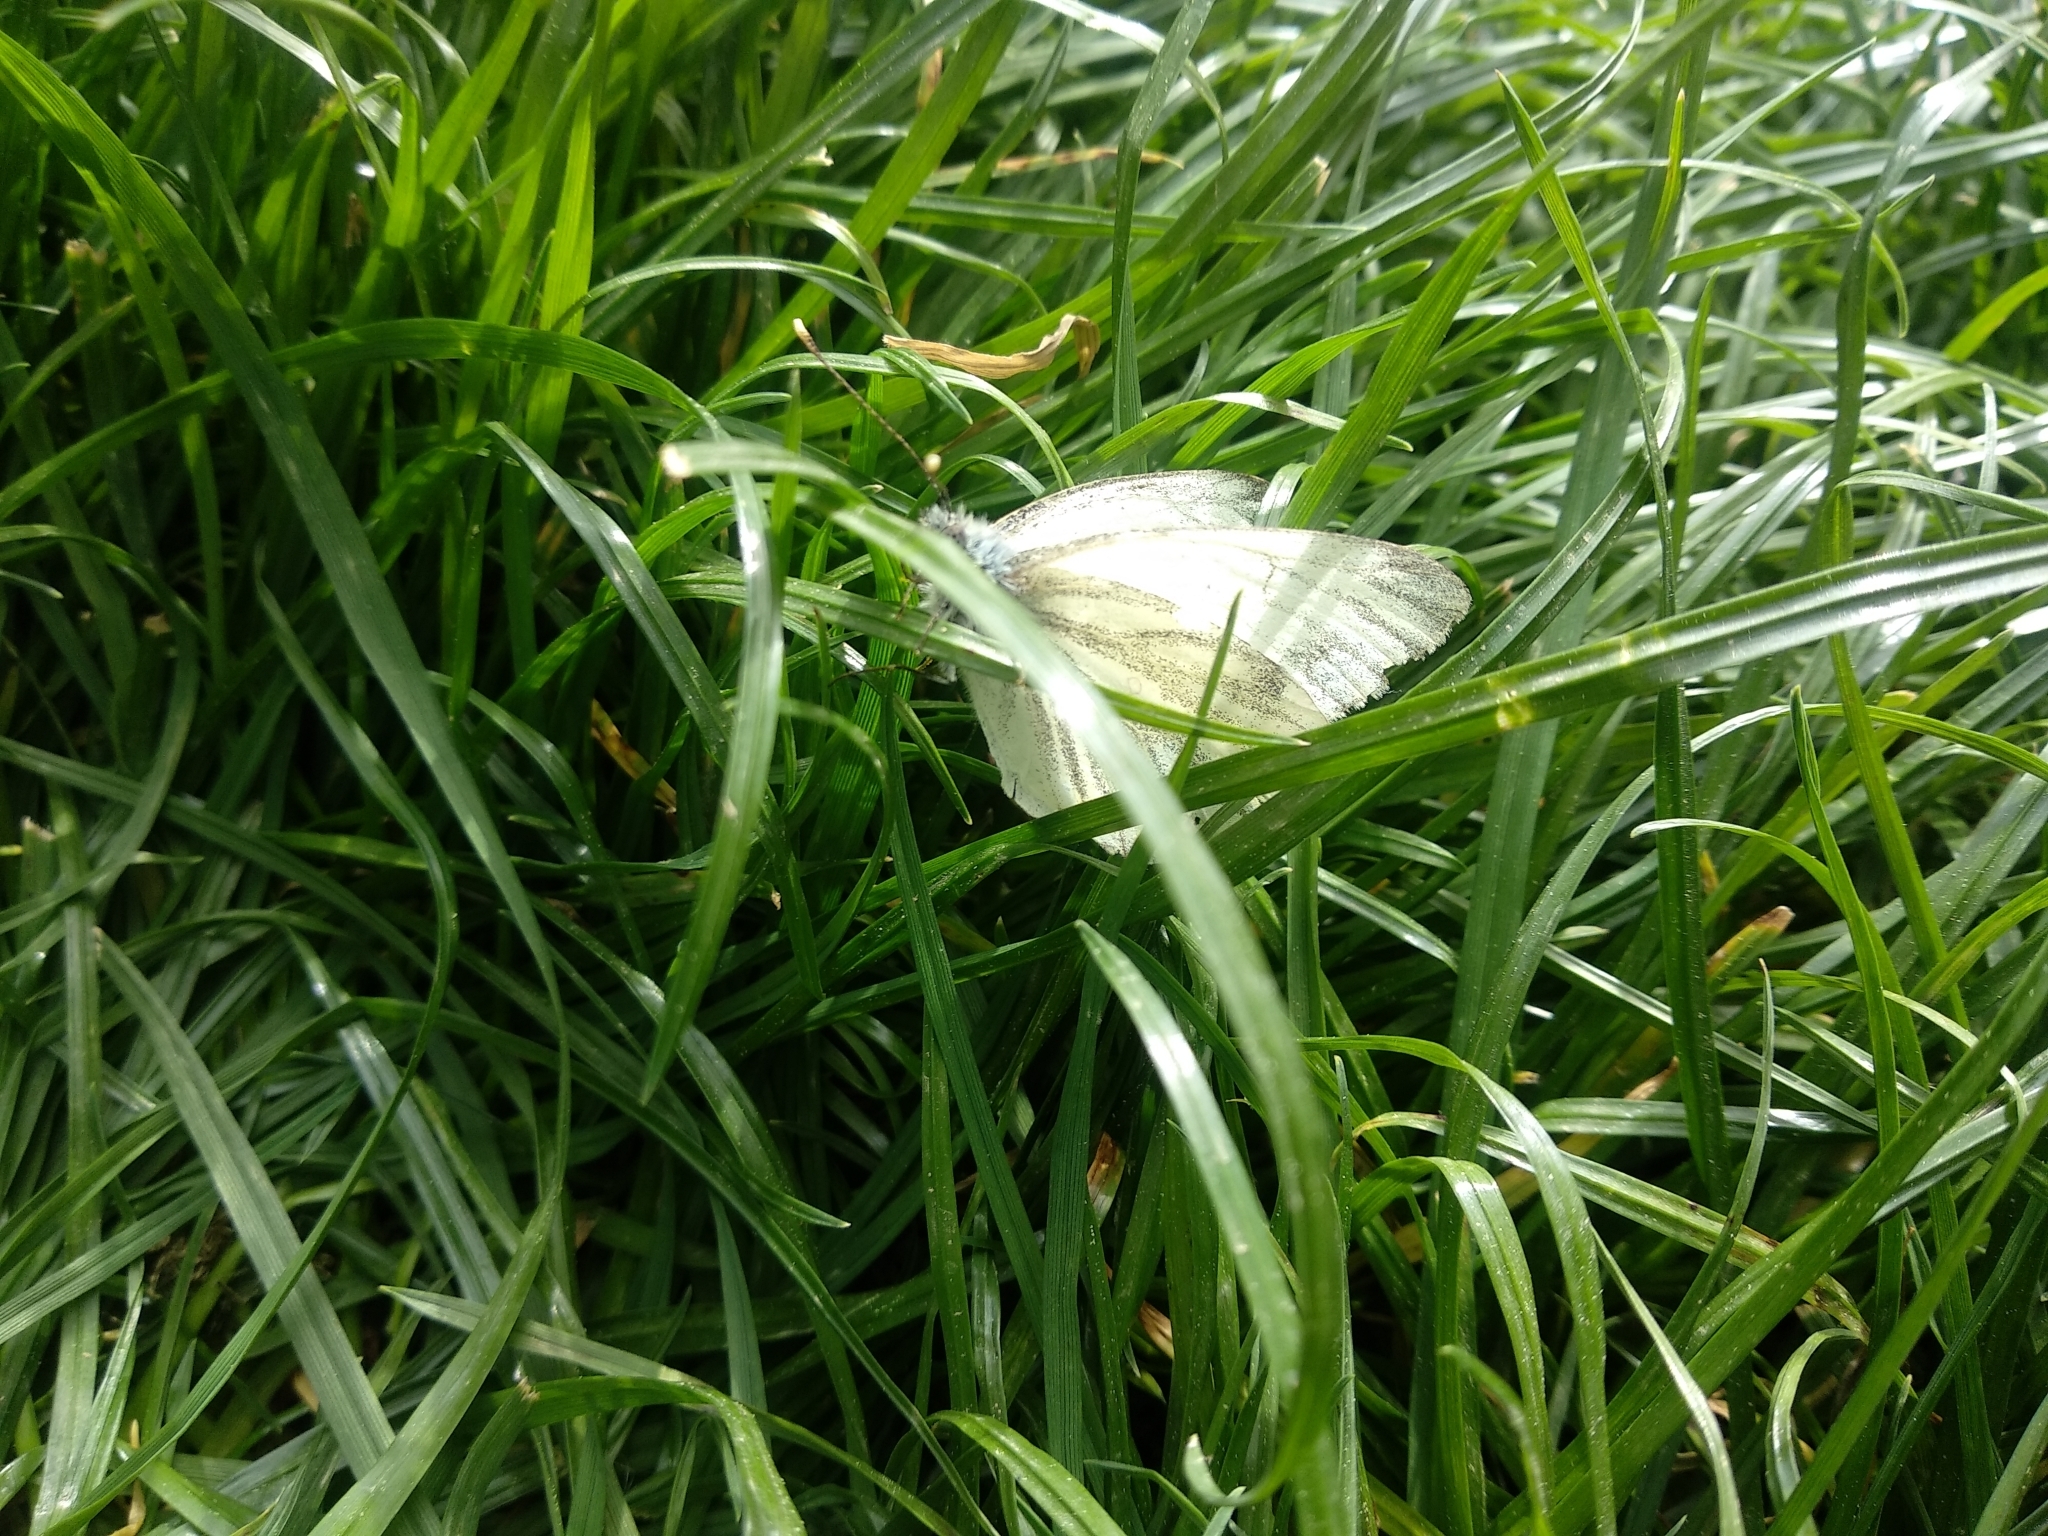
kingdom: Animalia
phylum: Arthropoda
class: Insecta
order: Lepidoptera
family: Pieridae
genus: Pieris
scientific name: Pieris napi
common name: Green-veined white
